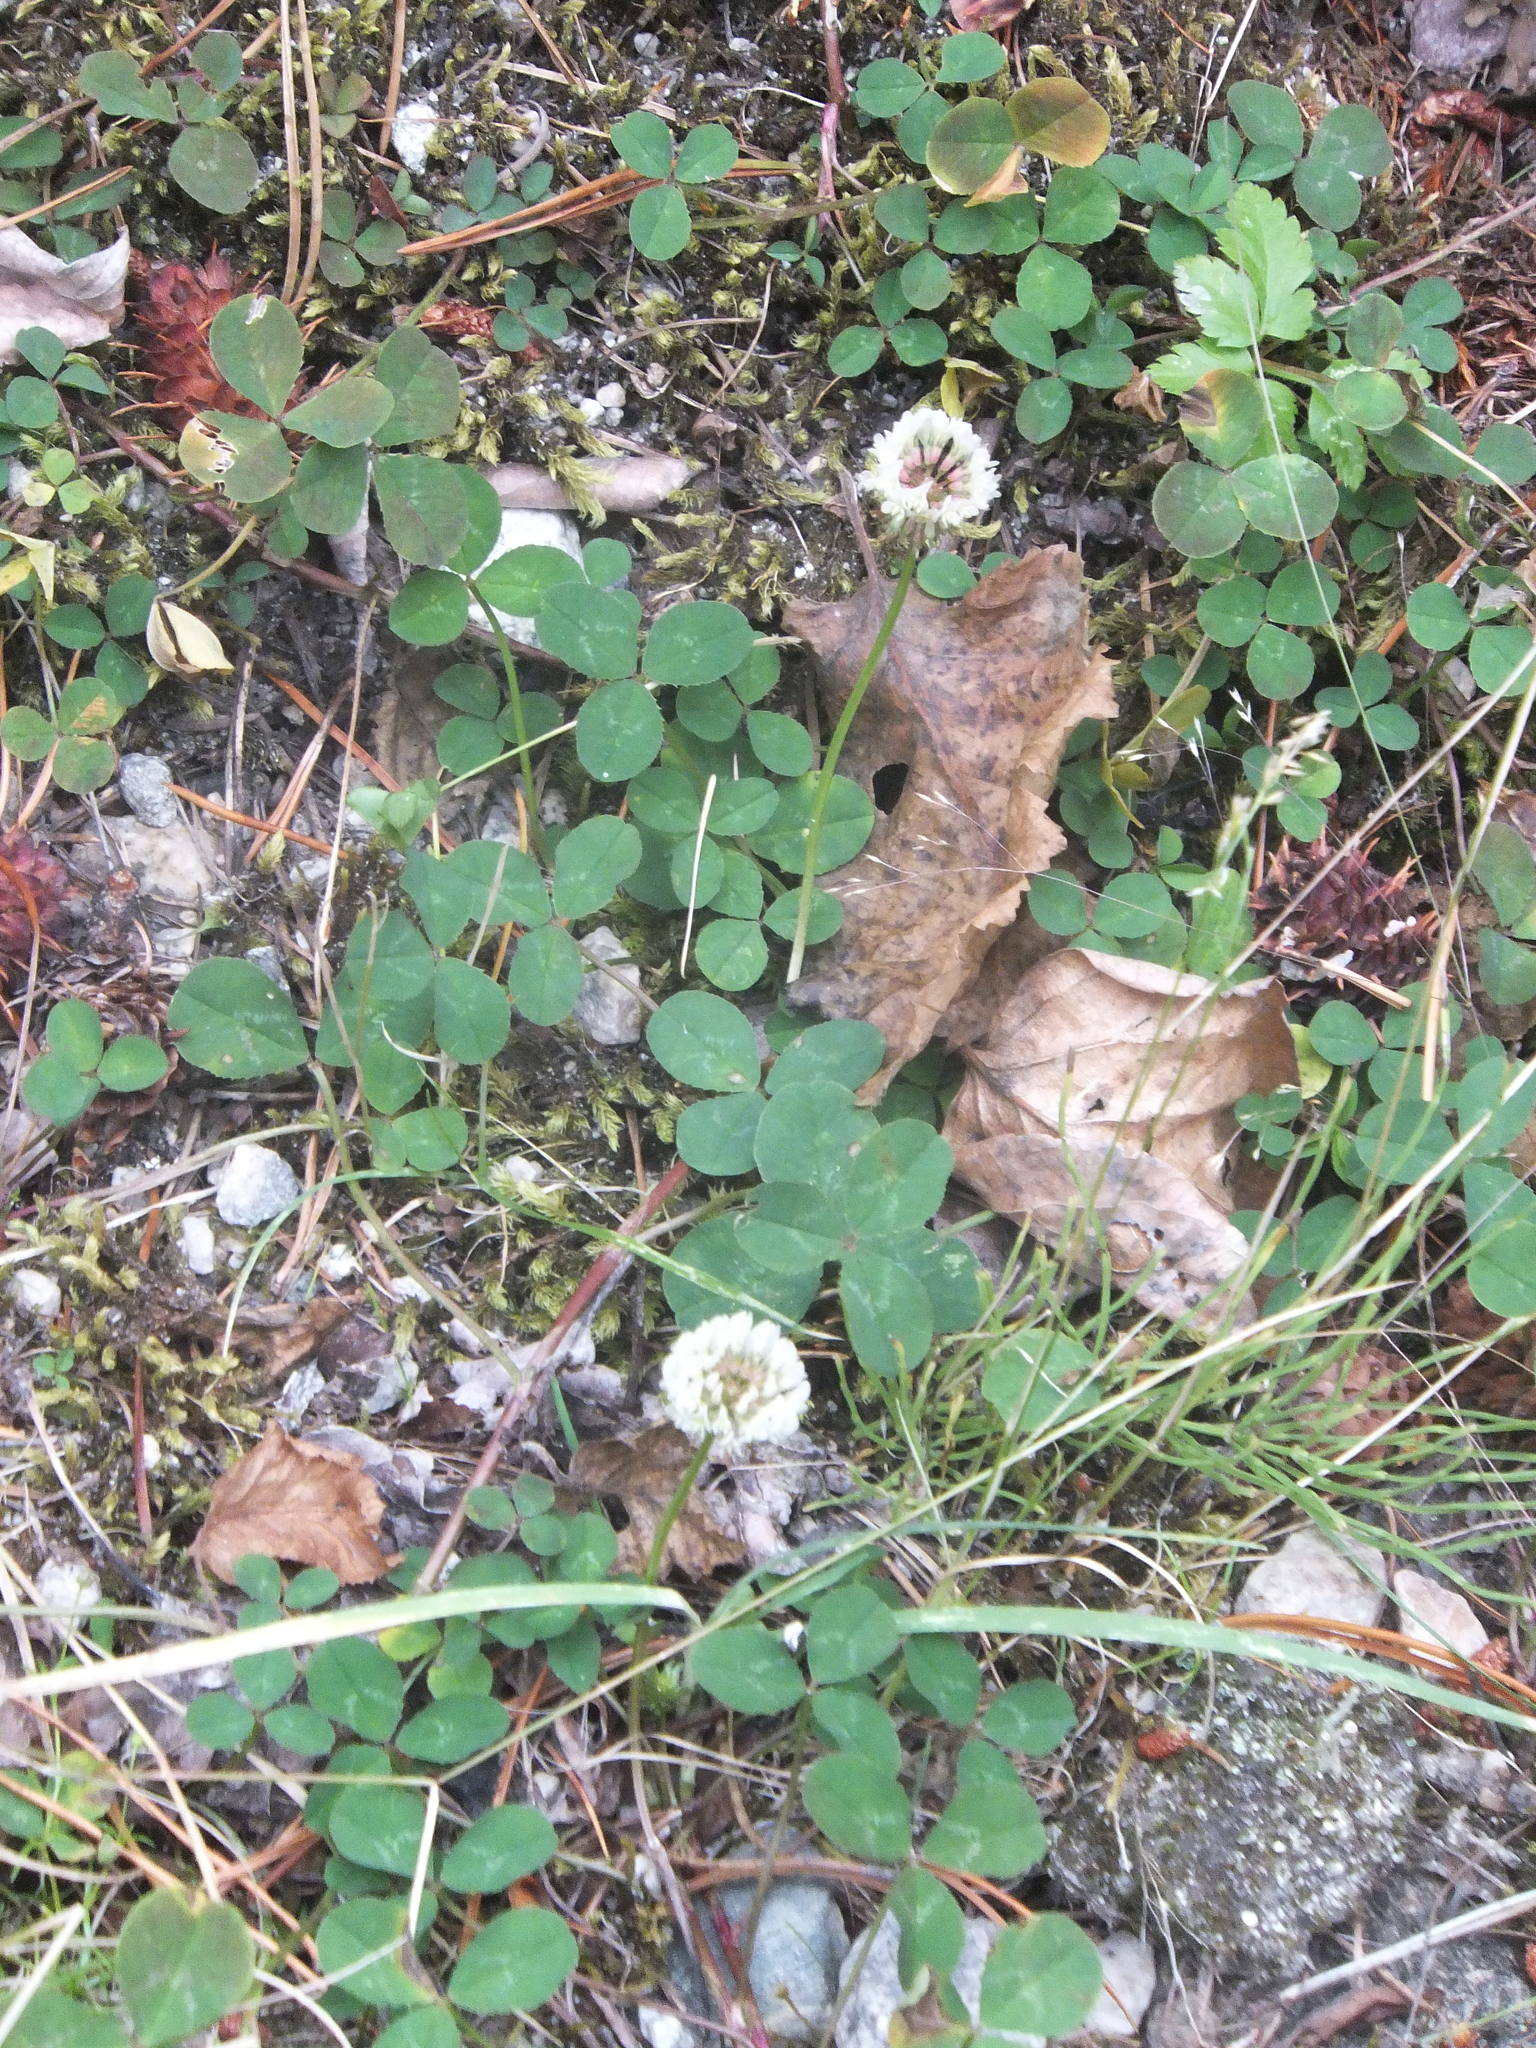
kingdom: Plantae
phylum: Tracheophyta
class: Magnoliopsida
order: Fabales
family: Fabaceae
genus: Trifolium
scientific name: Trifolium repens
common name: White clover
